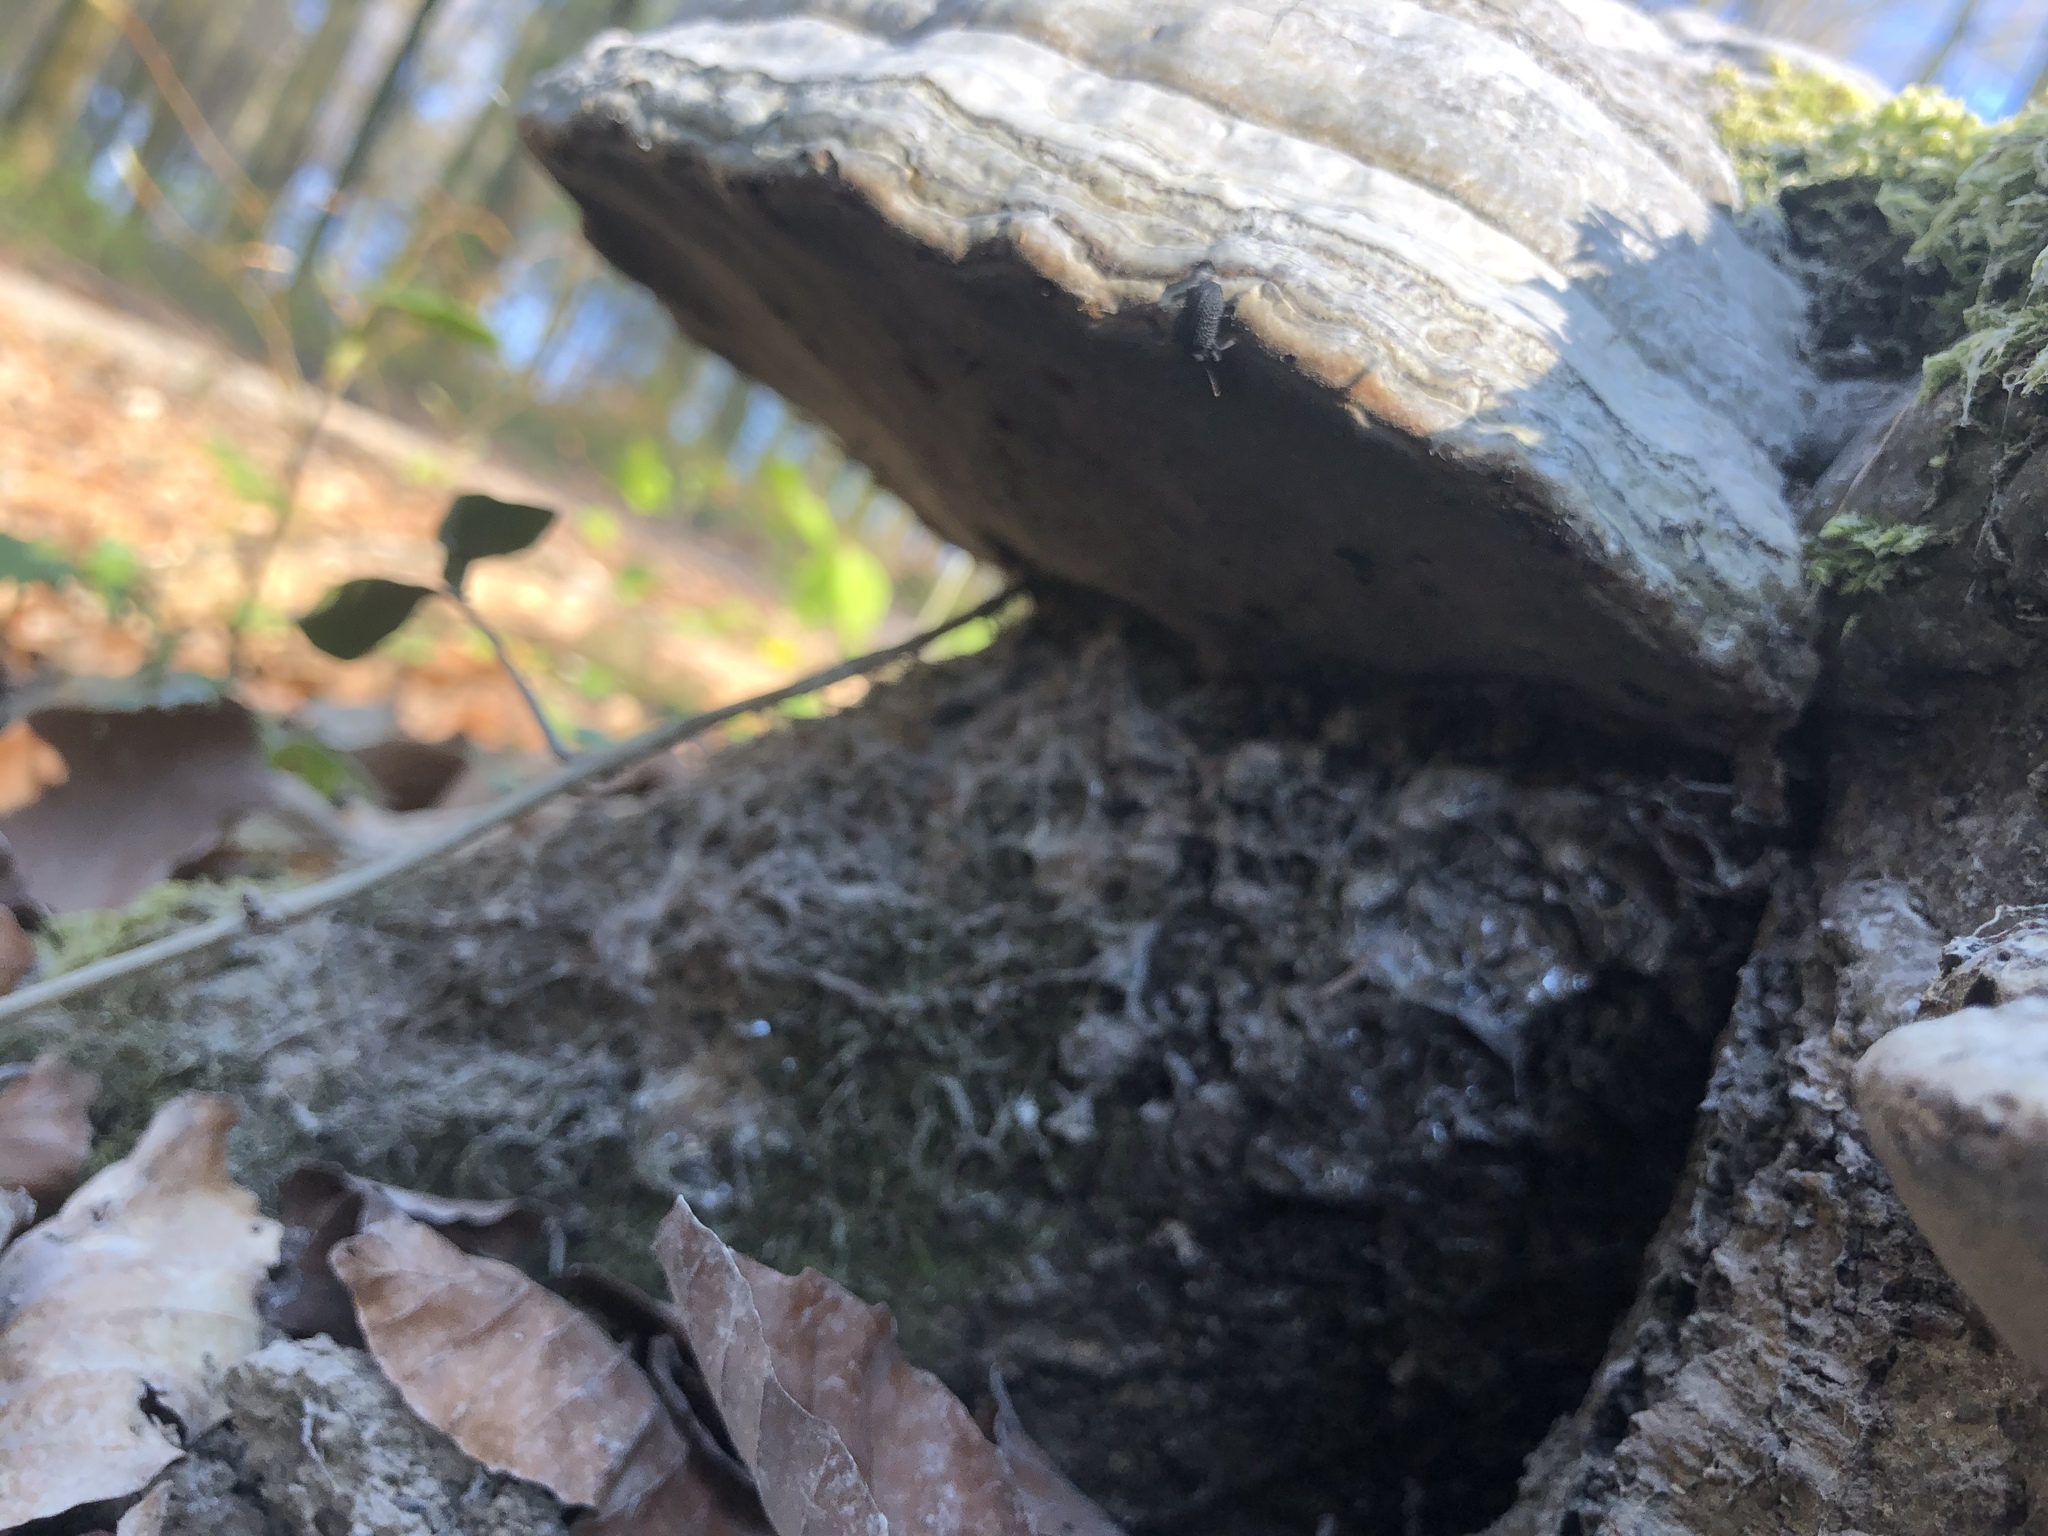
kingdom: Fungi
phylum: Basidiomycota
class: Agaricomycetes
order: Polyporales
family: Polyporaceae
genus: Fomes
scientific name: Fomes fomentarius
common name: Hoof fungus
